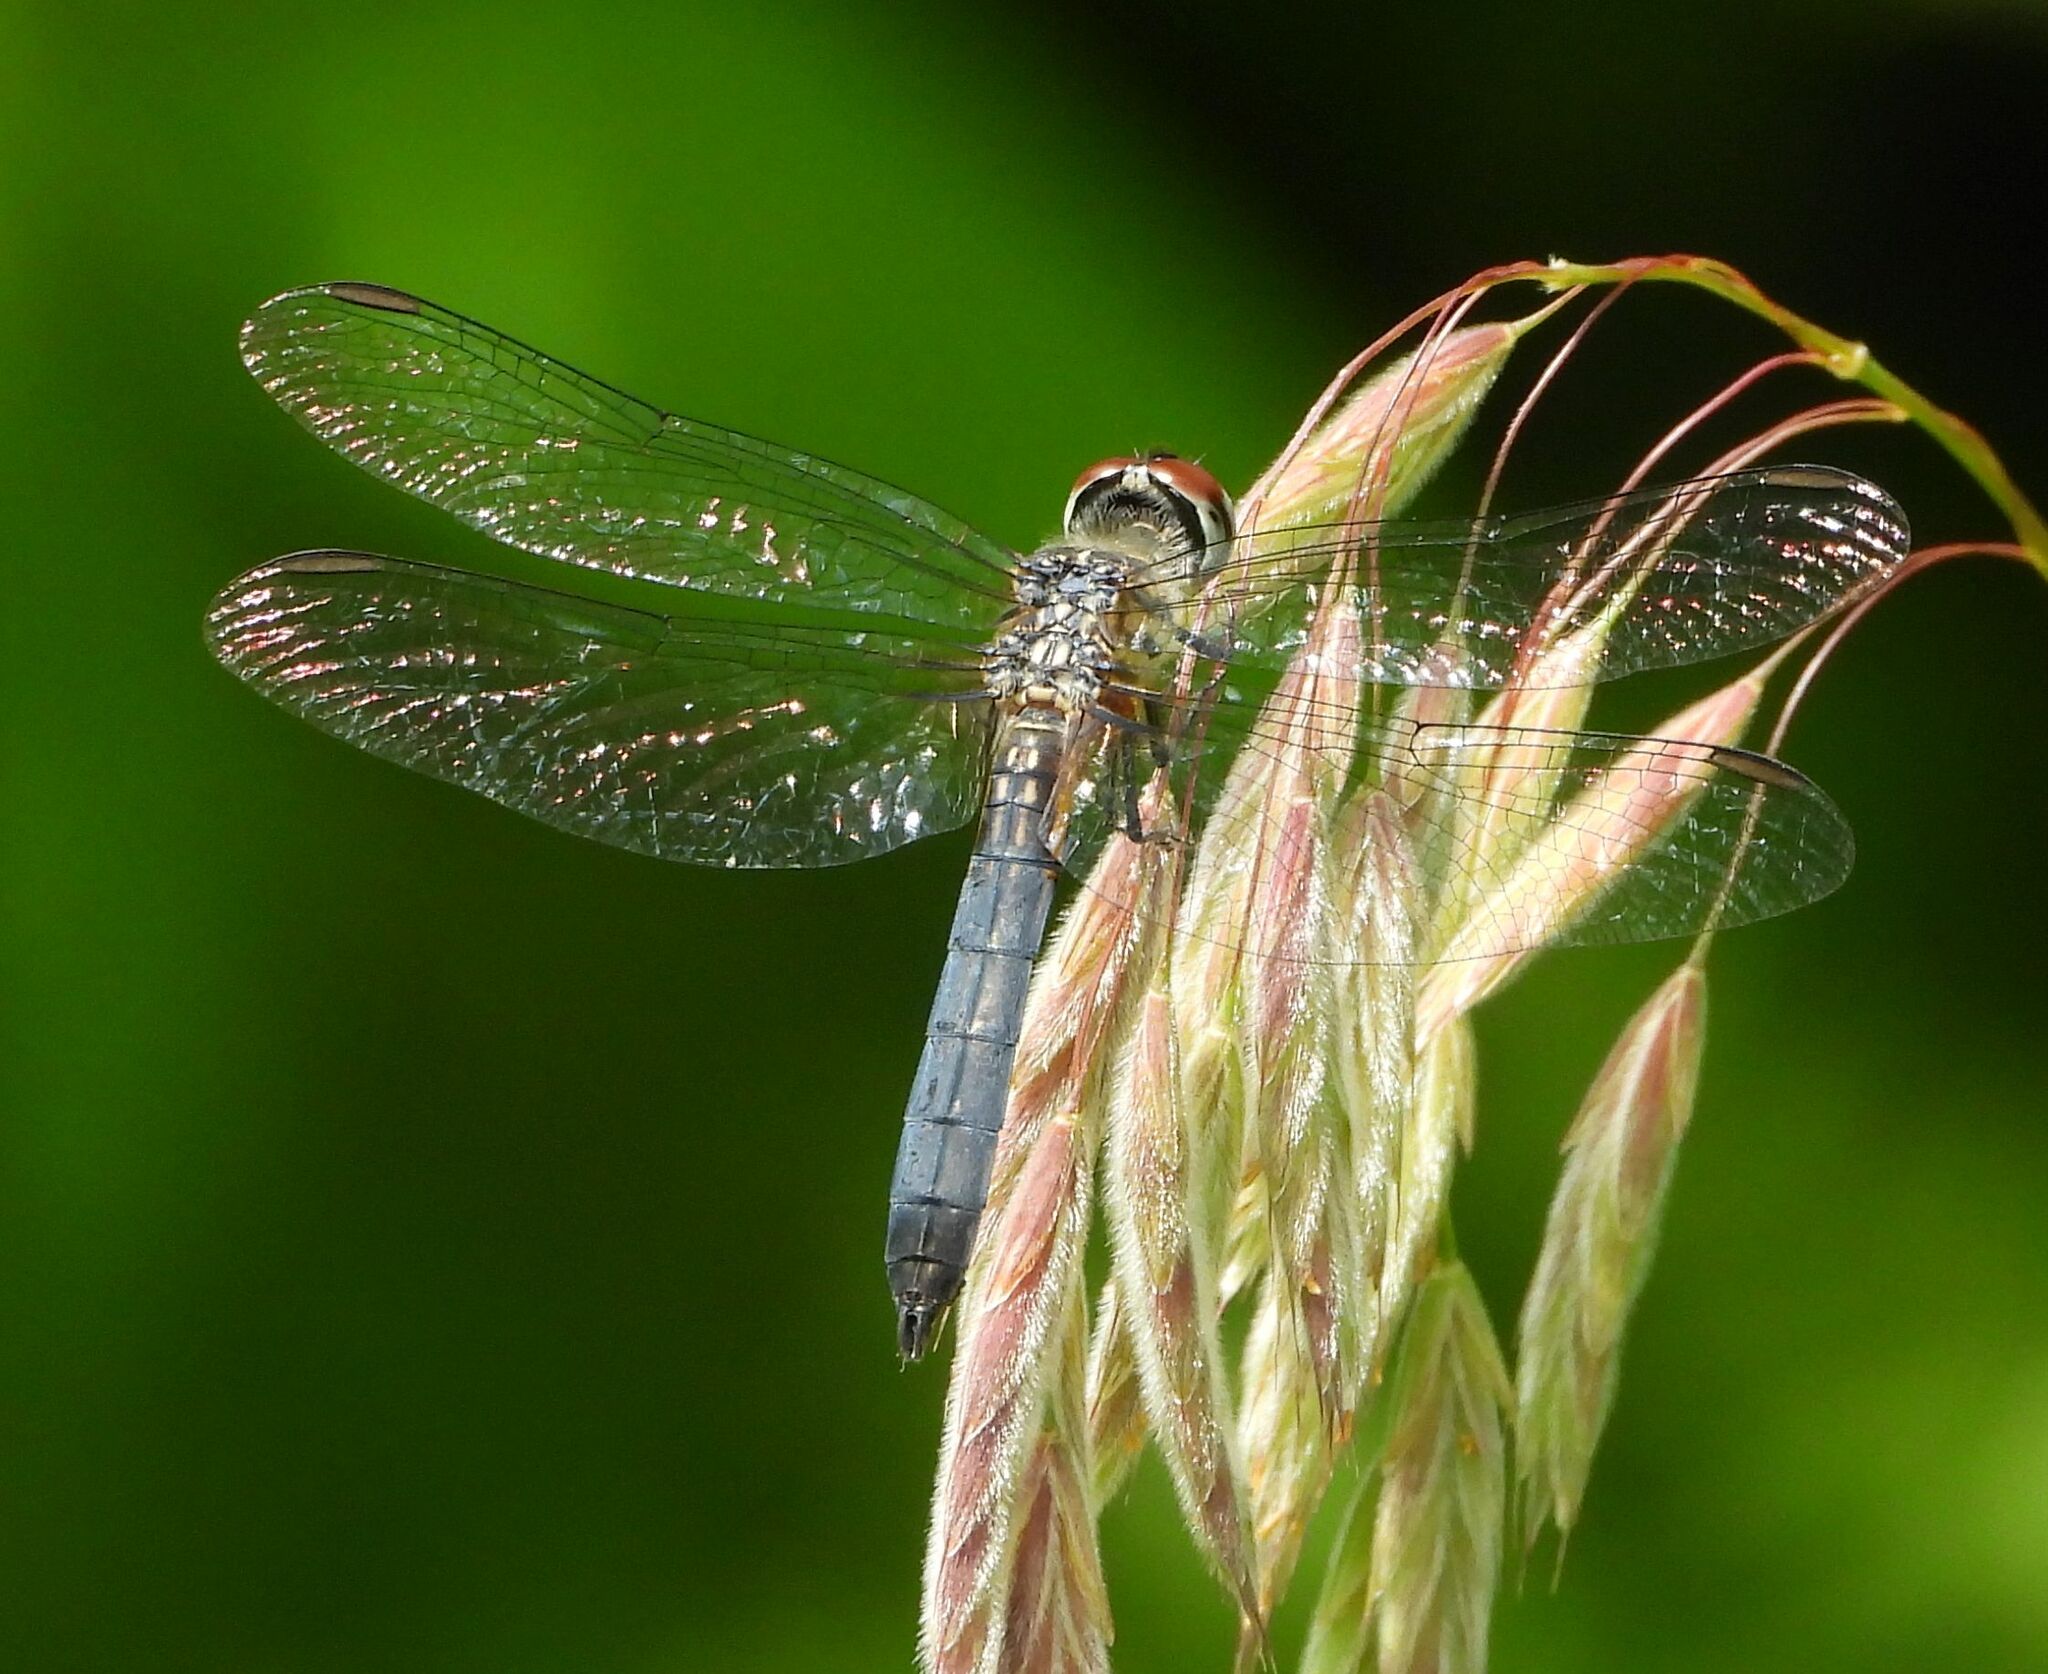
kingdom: Animalia
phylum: Arthropoda
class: Insecta
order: Odonata
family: Libellulidae
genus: Pachydiplax
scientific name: Pachydiplax longipennis
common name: Blue dasher
